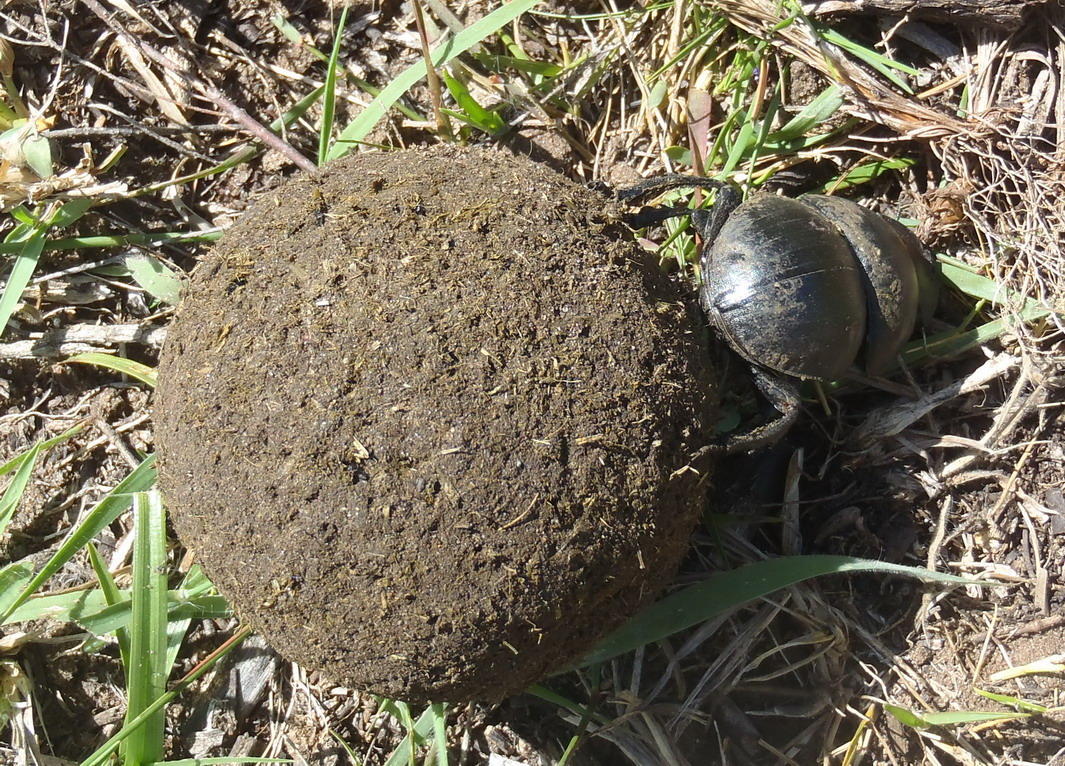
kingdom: Animalia
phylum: Arthropoda
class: Insecta
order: Coleoptera
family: Scarabaeidae
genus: Circellium
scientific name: Circellium bacchus
